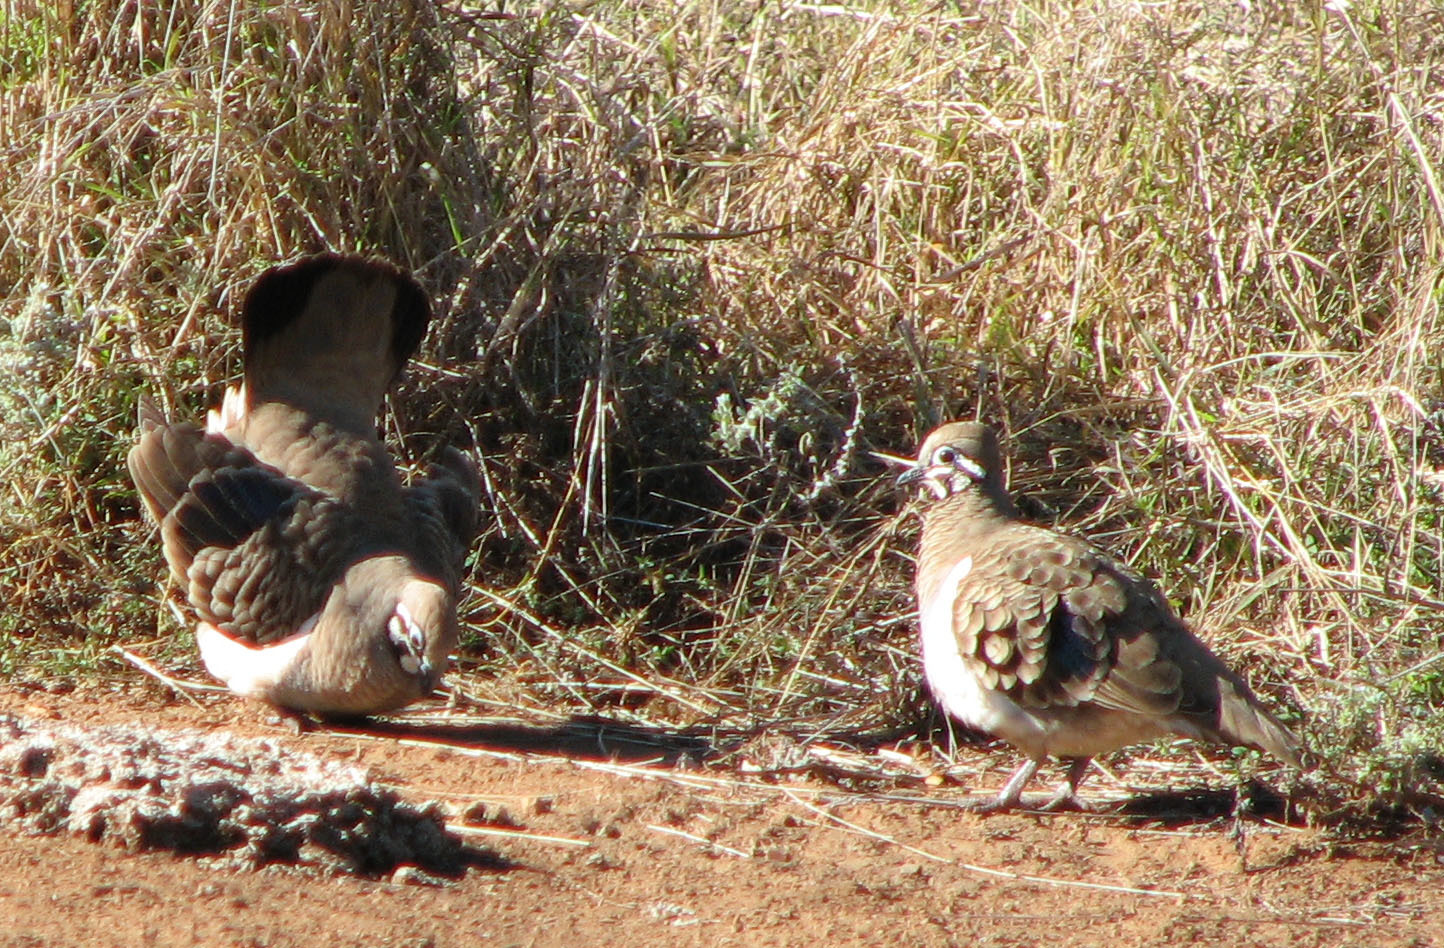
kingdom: Animalia
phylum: Chordata
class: Aves
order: Columbiformes
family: Columbidae
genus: Geophaps
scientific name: Geophaps scripta
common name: Squatter pigeon
